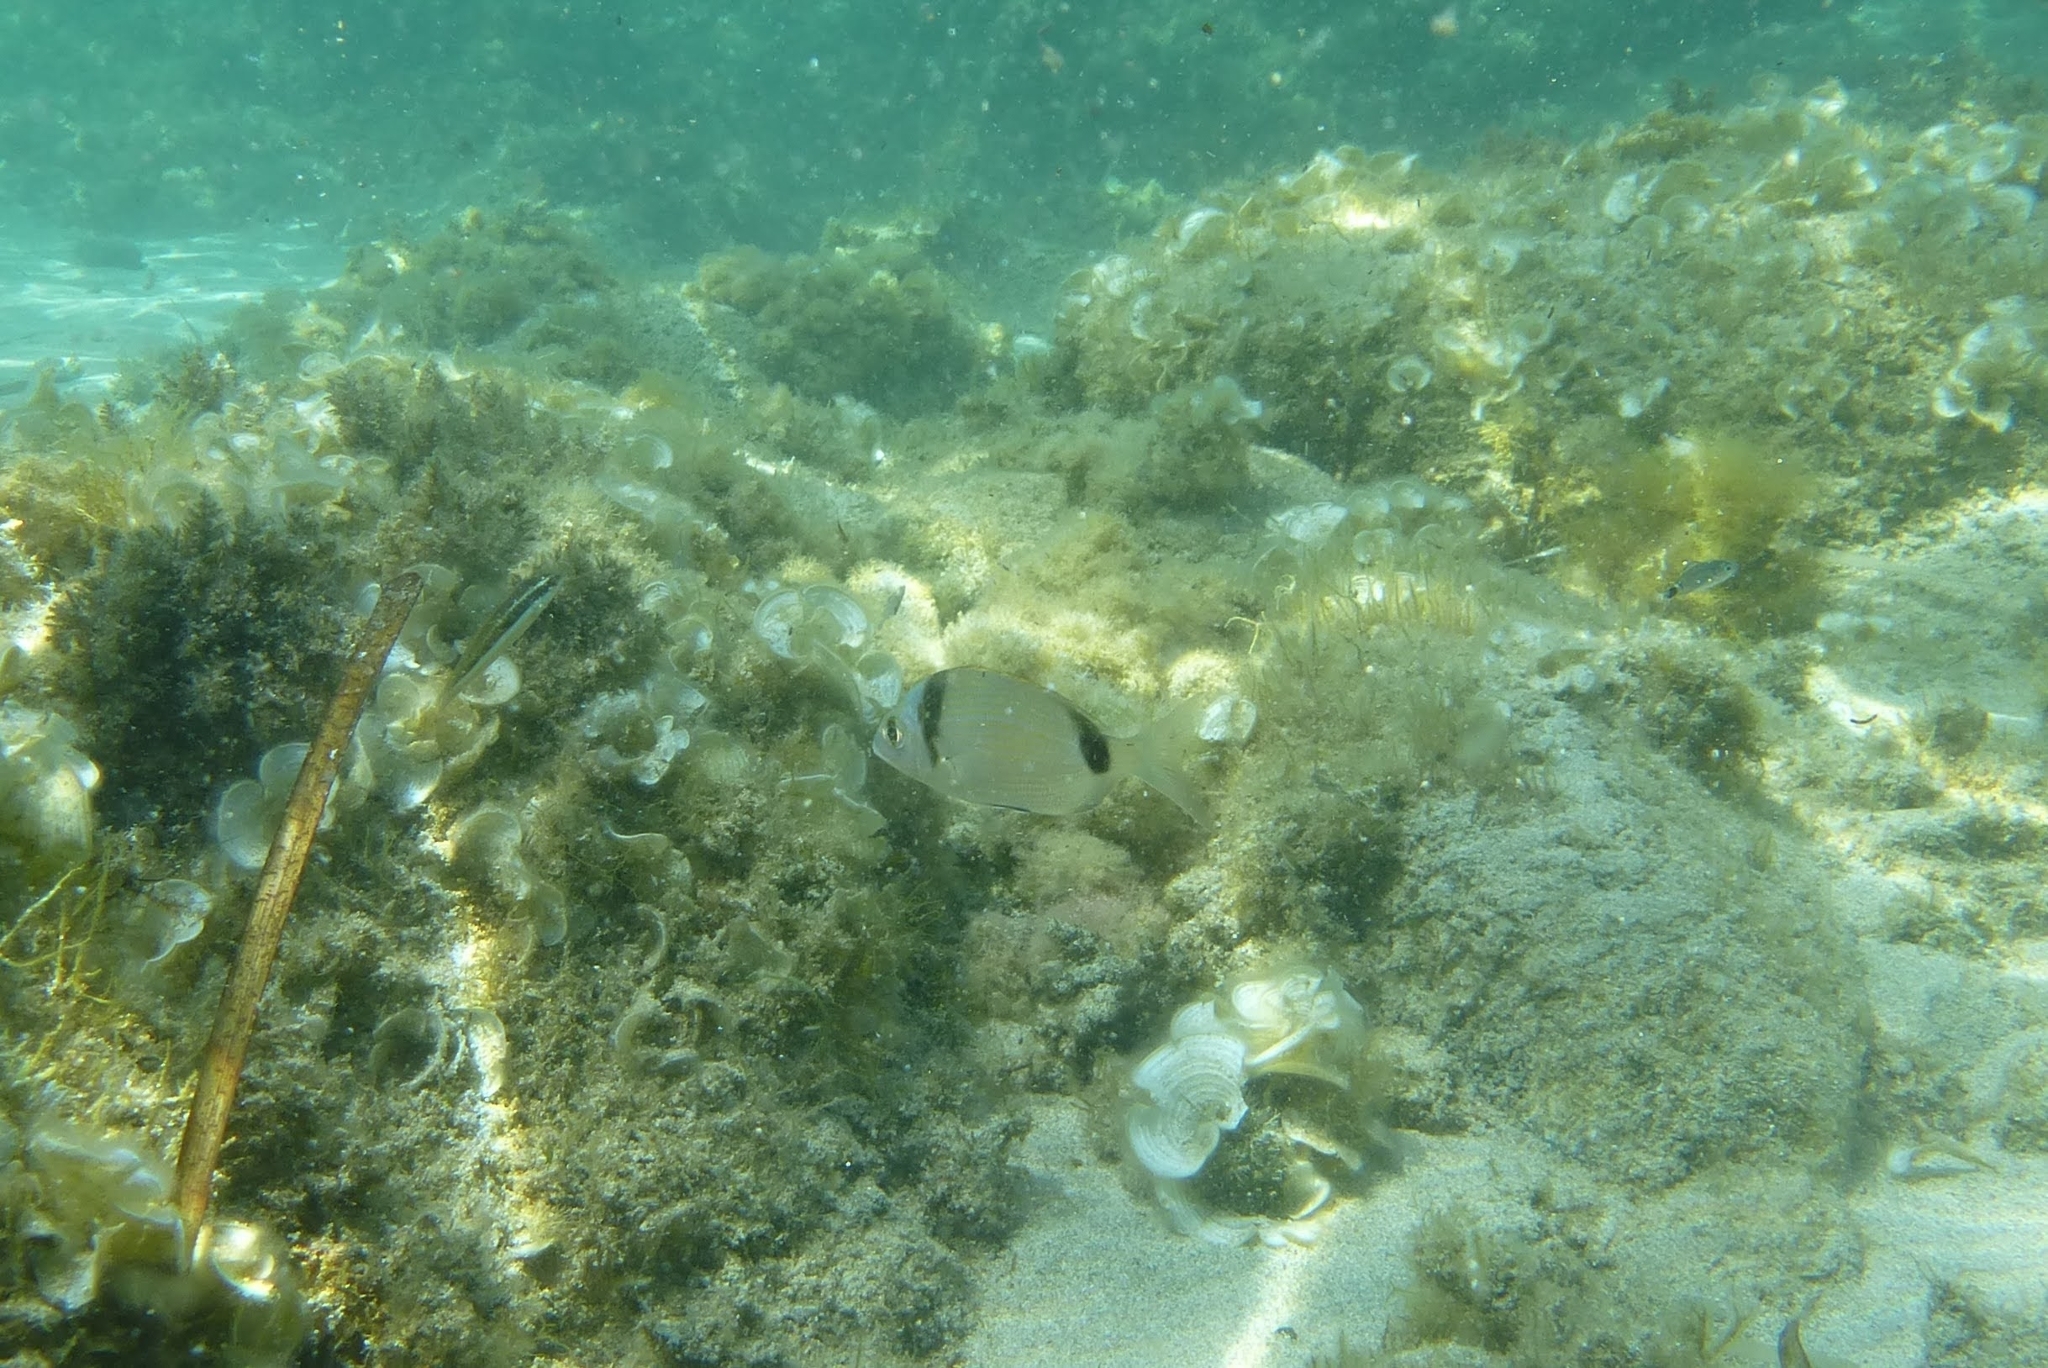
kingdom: Animalia
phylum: Chordata
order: Perciformes
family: Sparidae
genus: Diplodus
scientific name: Diplodus vulgaris
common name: Common two-banded seabream
